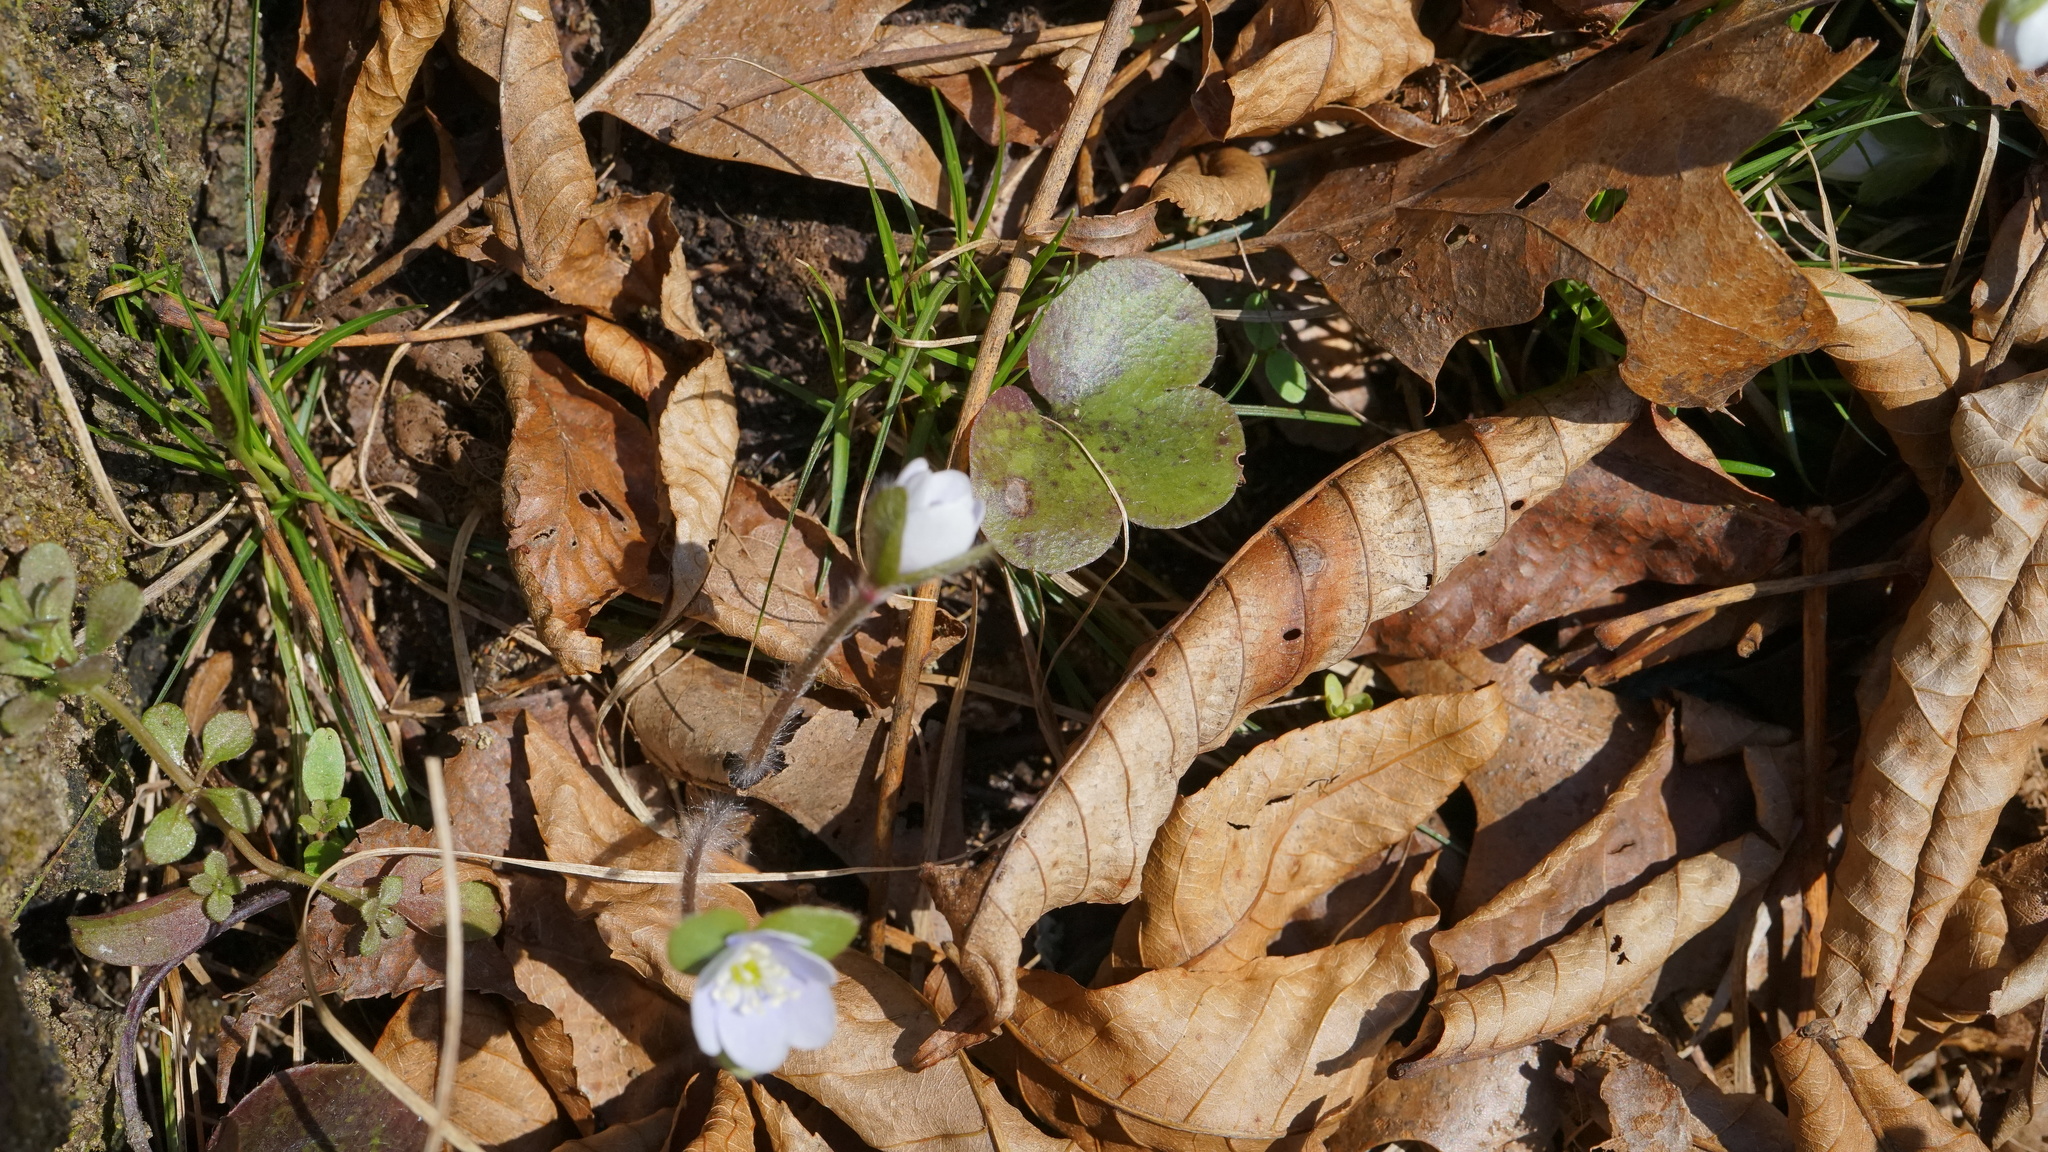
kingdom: Plantae
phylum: Tracheophyta
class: Magnoliopsida
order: Ranunculales
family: Ranunculaceae
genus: Hepatica
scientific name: Hepatica americana
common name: American hepatica
